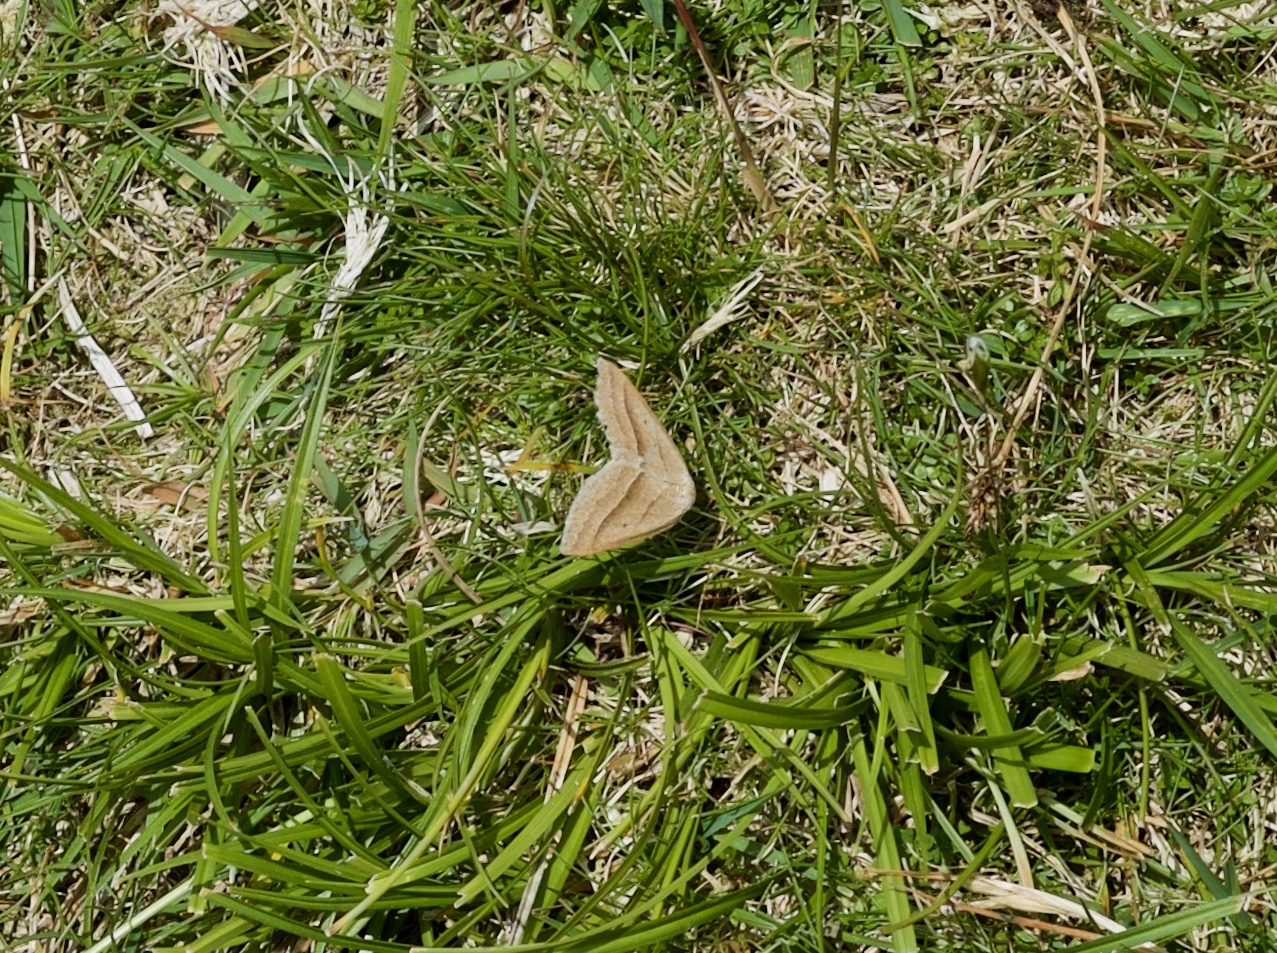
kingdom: Animalia
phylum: Arthropoda
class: Insecta
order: Lepidoptera
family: Pterophoridae
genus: Pterophorus
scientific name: Pterophorus Petrophora chlorosata
